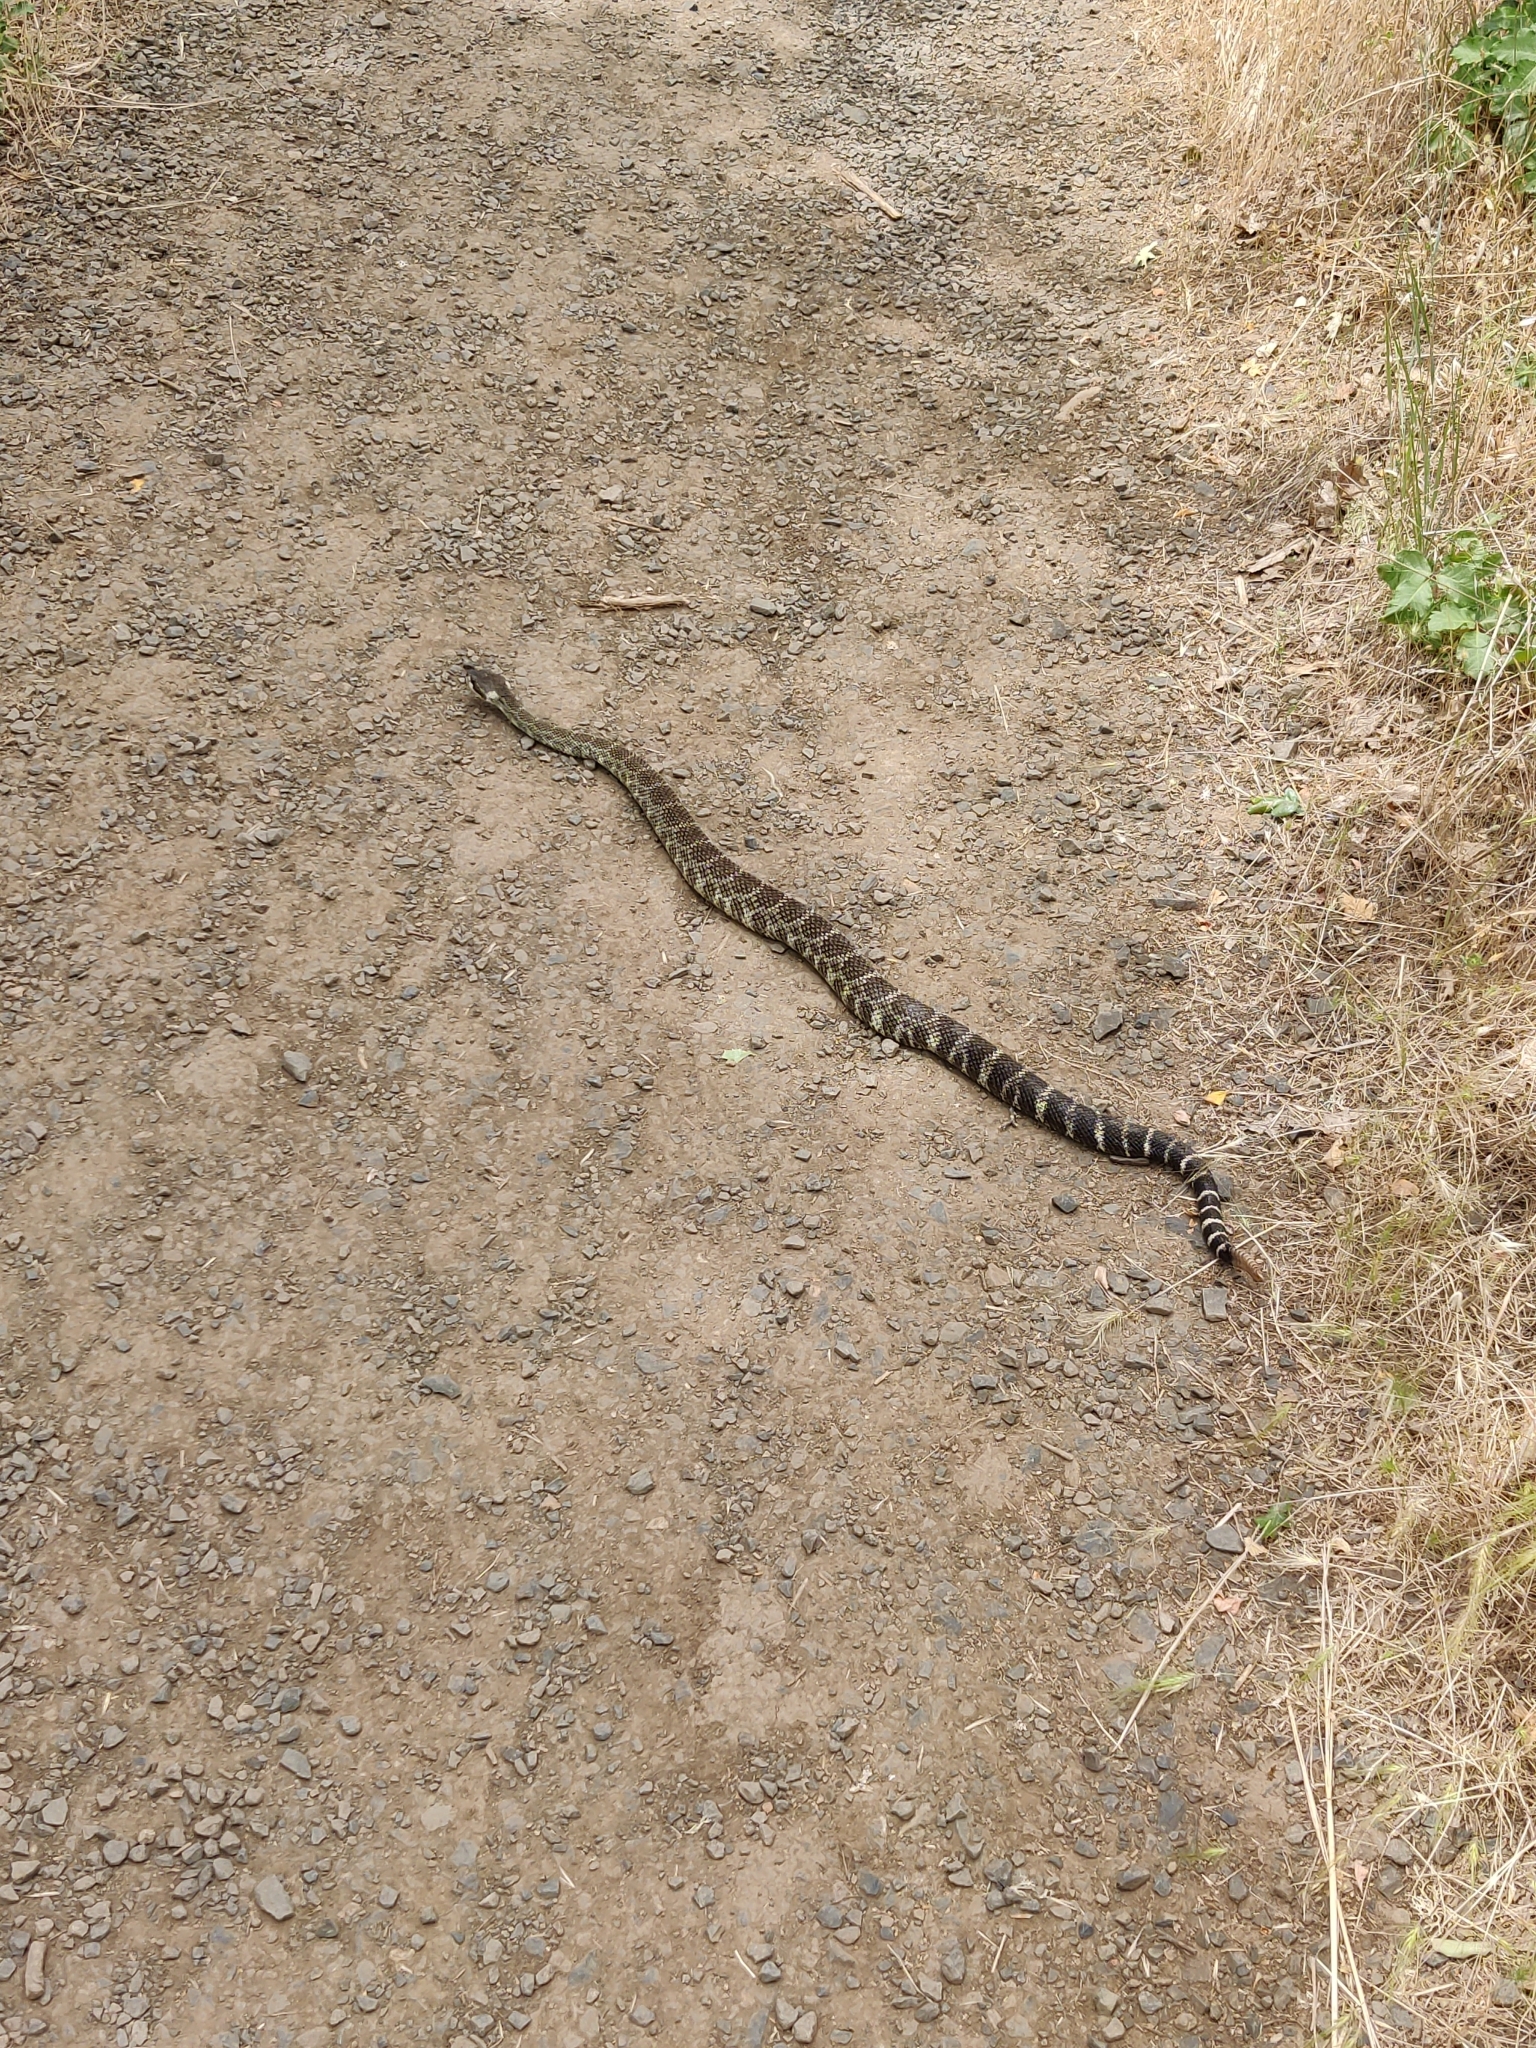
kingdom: Animalia
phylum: Chordata
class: Squamata
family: Viperidae
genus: Crotalus
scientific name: Crotalus oreganus
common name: Abyssus
